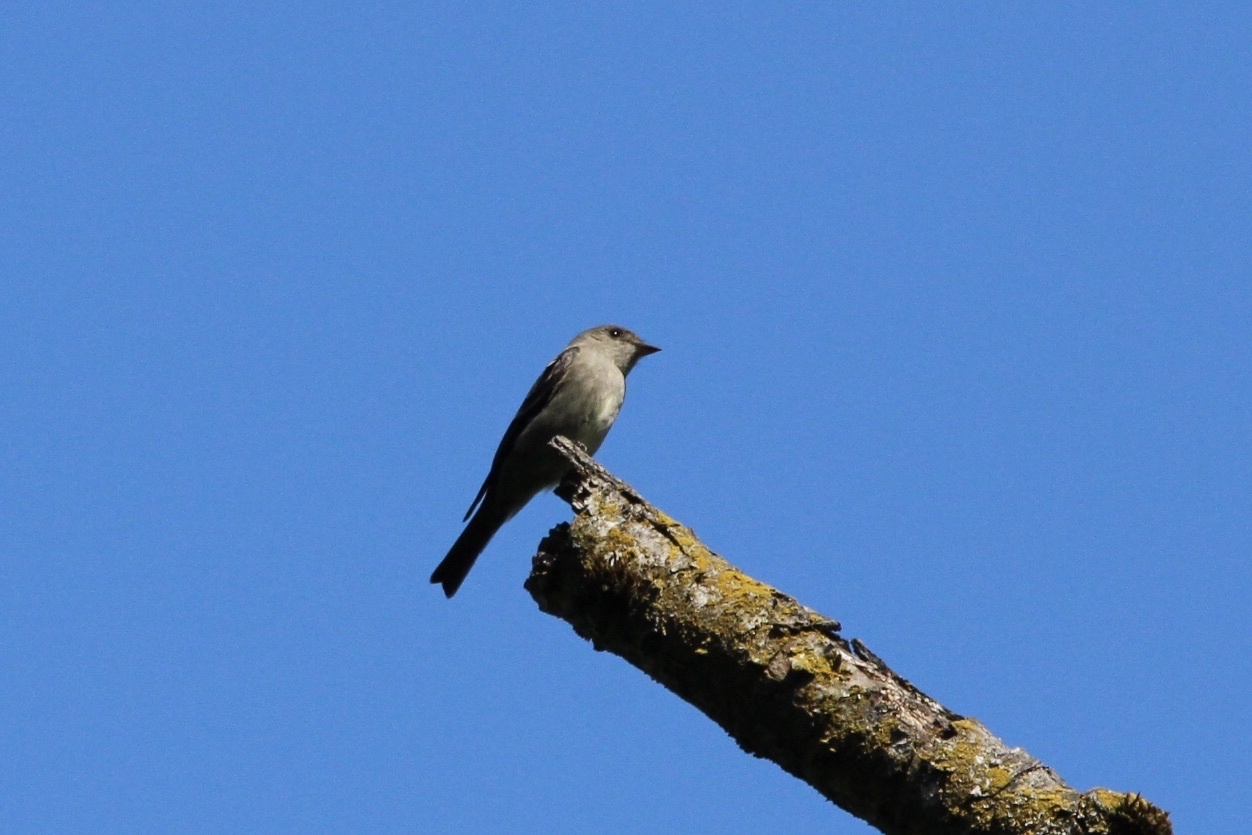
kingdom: Animalia
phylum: Chordata
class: Aves
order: Passeriformes
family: Tyrannidae
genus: Contopus
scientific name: Contopus sordidulus
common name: Western wood-pewee
